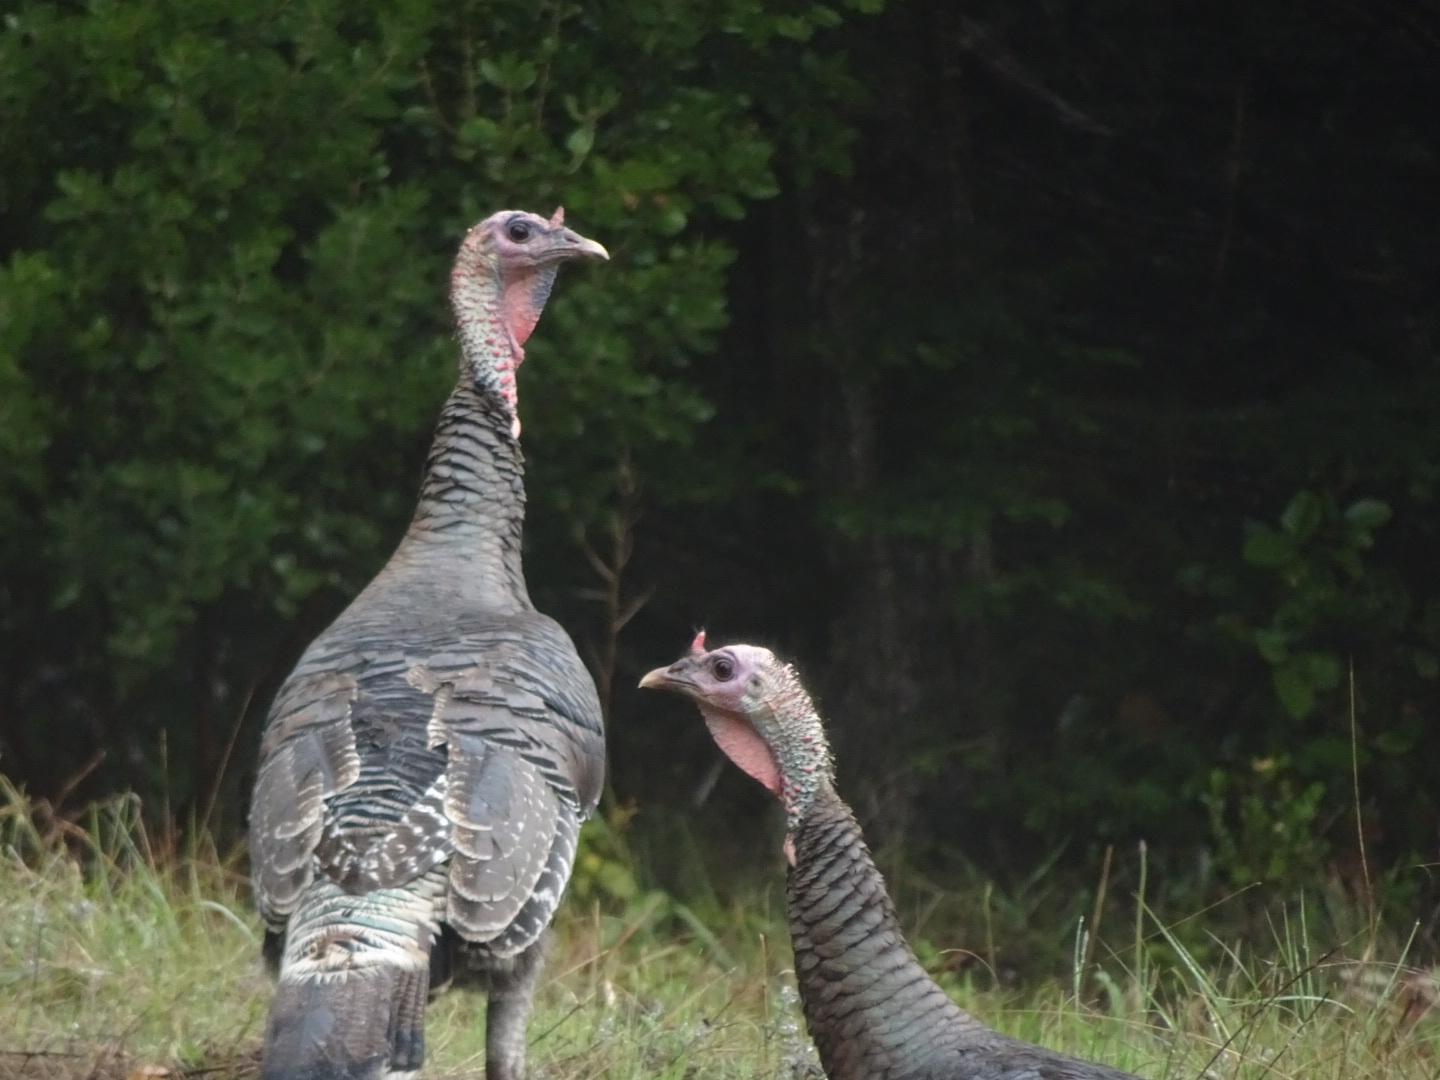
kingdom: Animalia
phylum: Chordata
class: Aves
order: Galliformes
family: Phasianidae
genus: Meleagris
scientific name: Meleagris gallopavo
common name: Wild turkey
